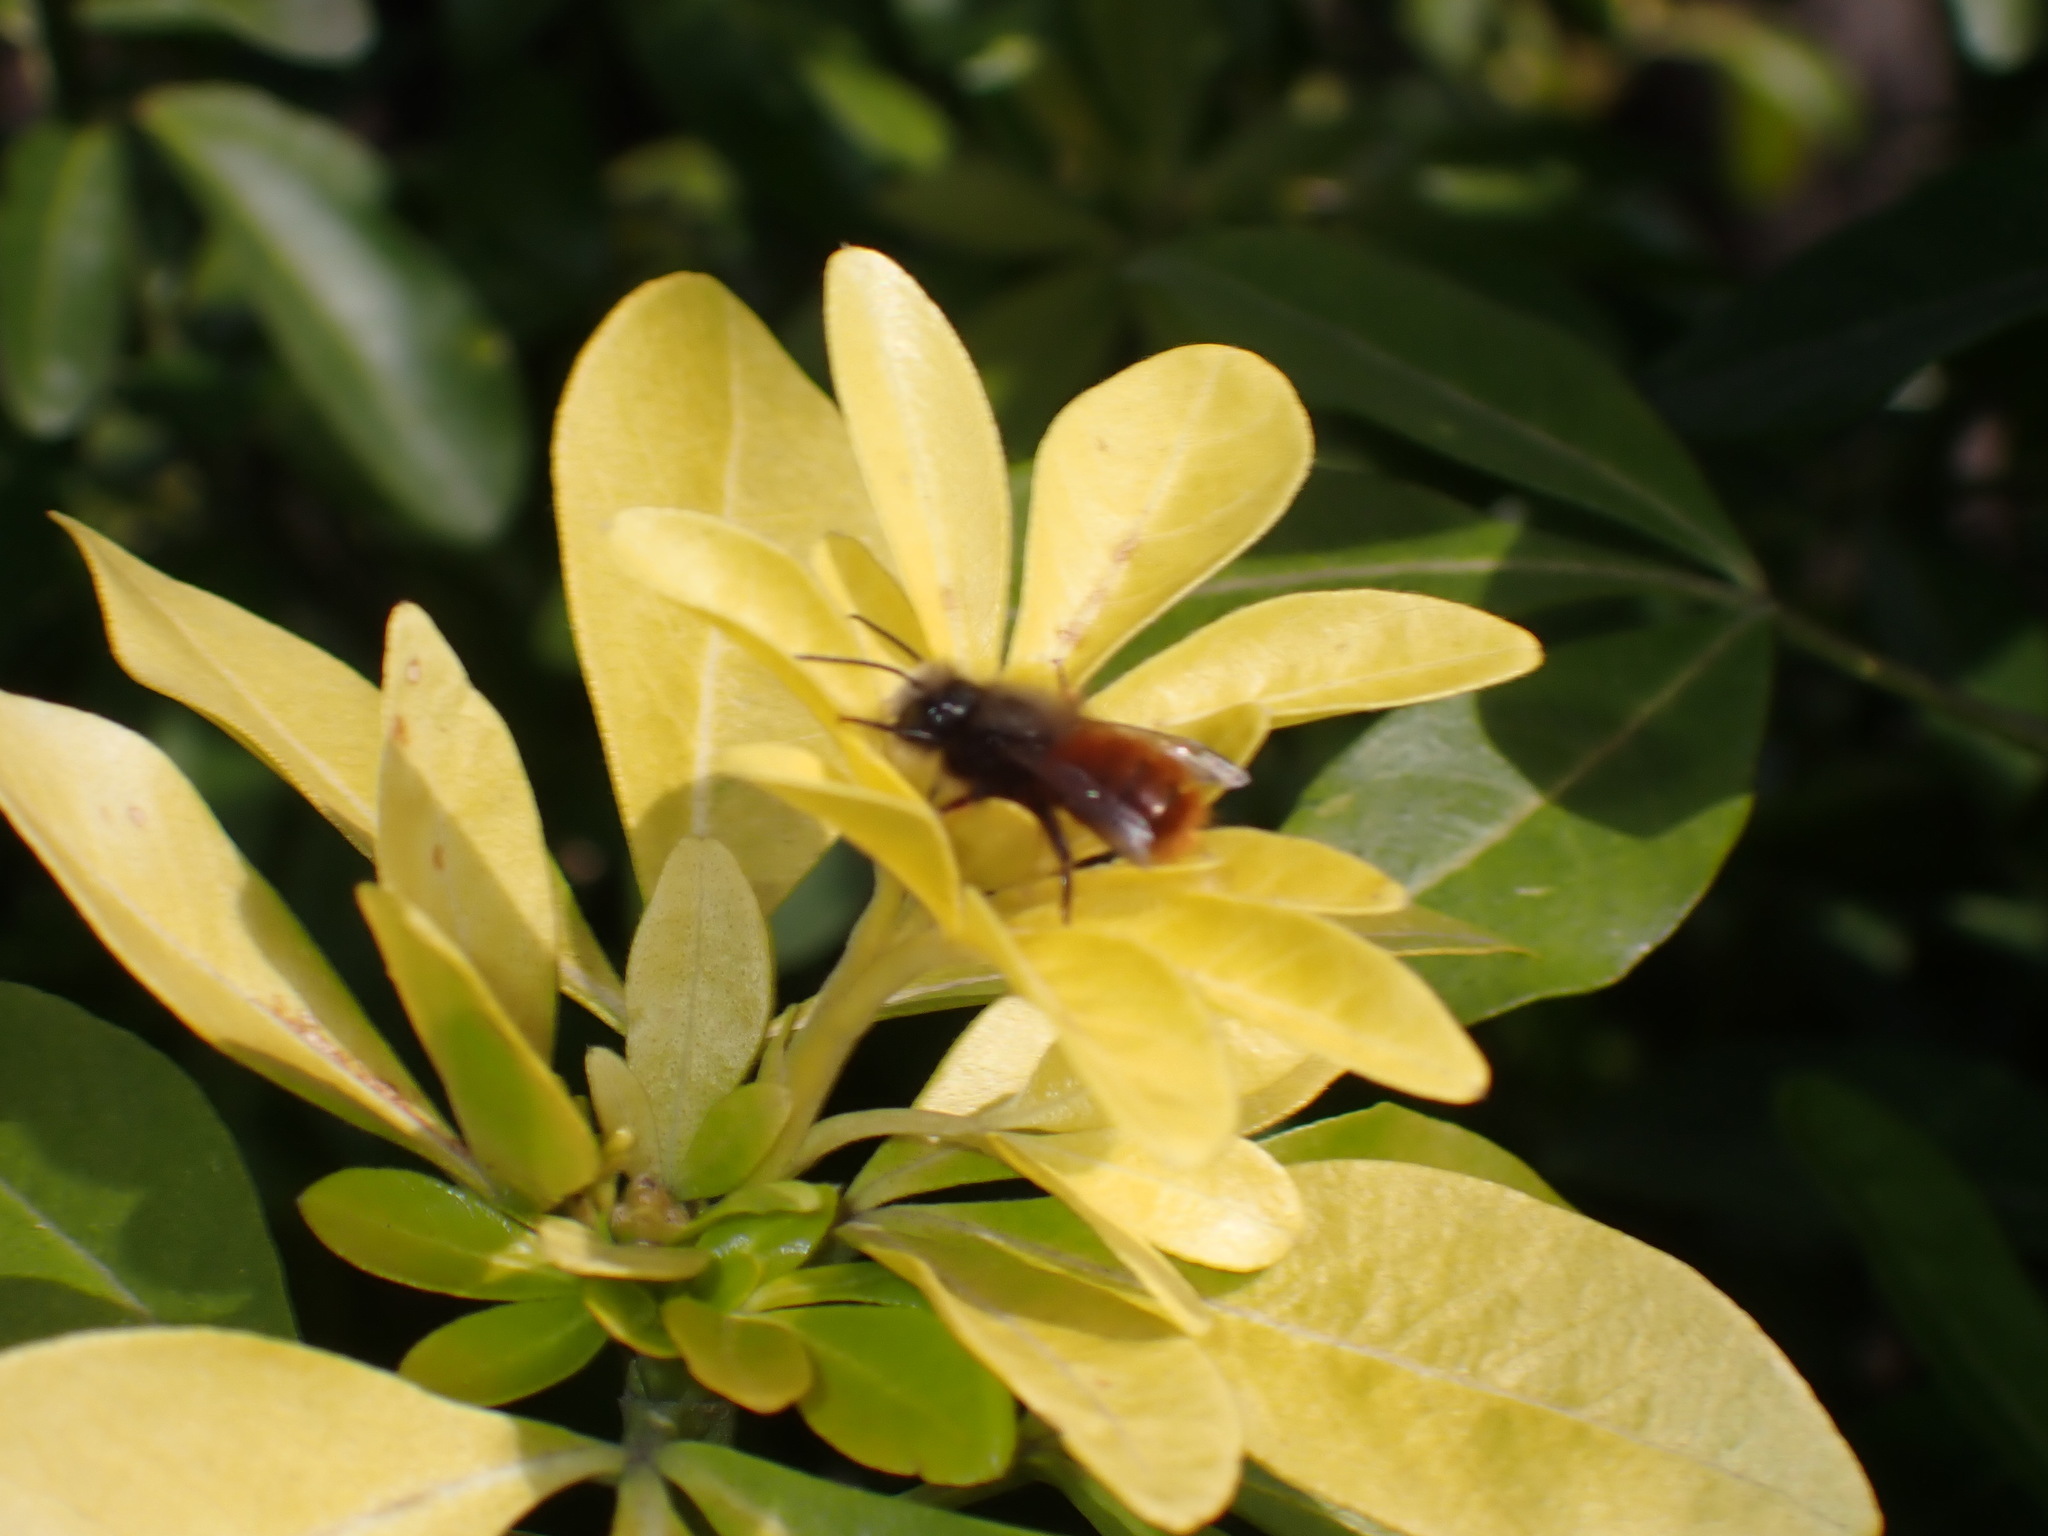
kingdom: Animalia
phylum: Arthropoda
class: Insecta
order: Hymenoptera
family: Megachilidae
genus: Osmia
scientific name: Osmia cornuta
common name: Mason bee
